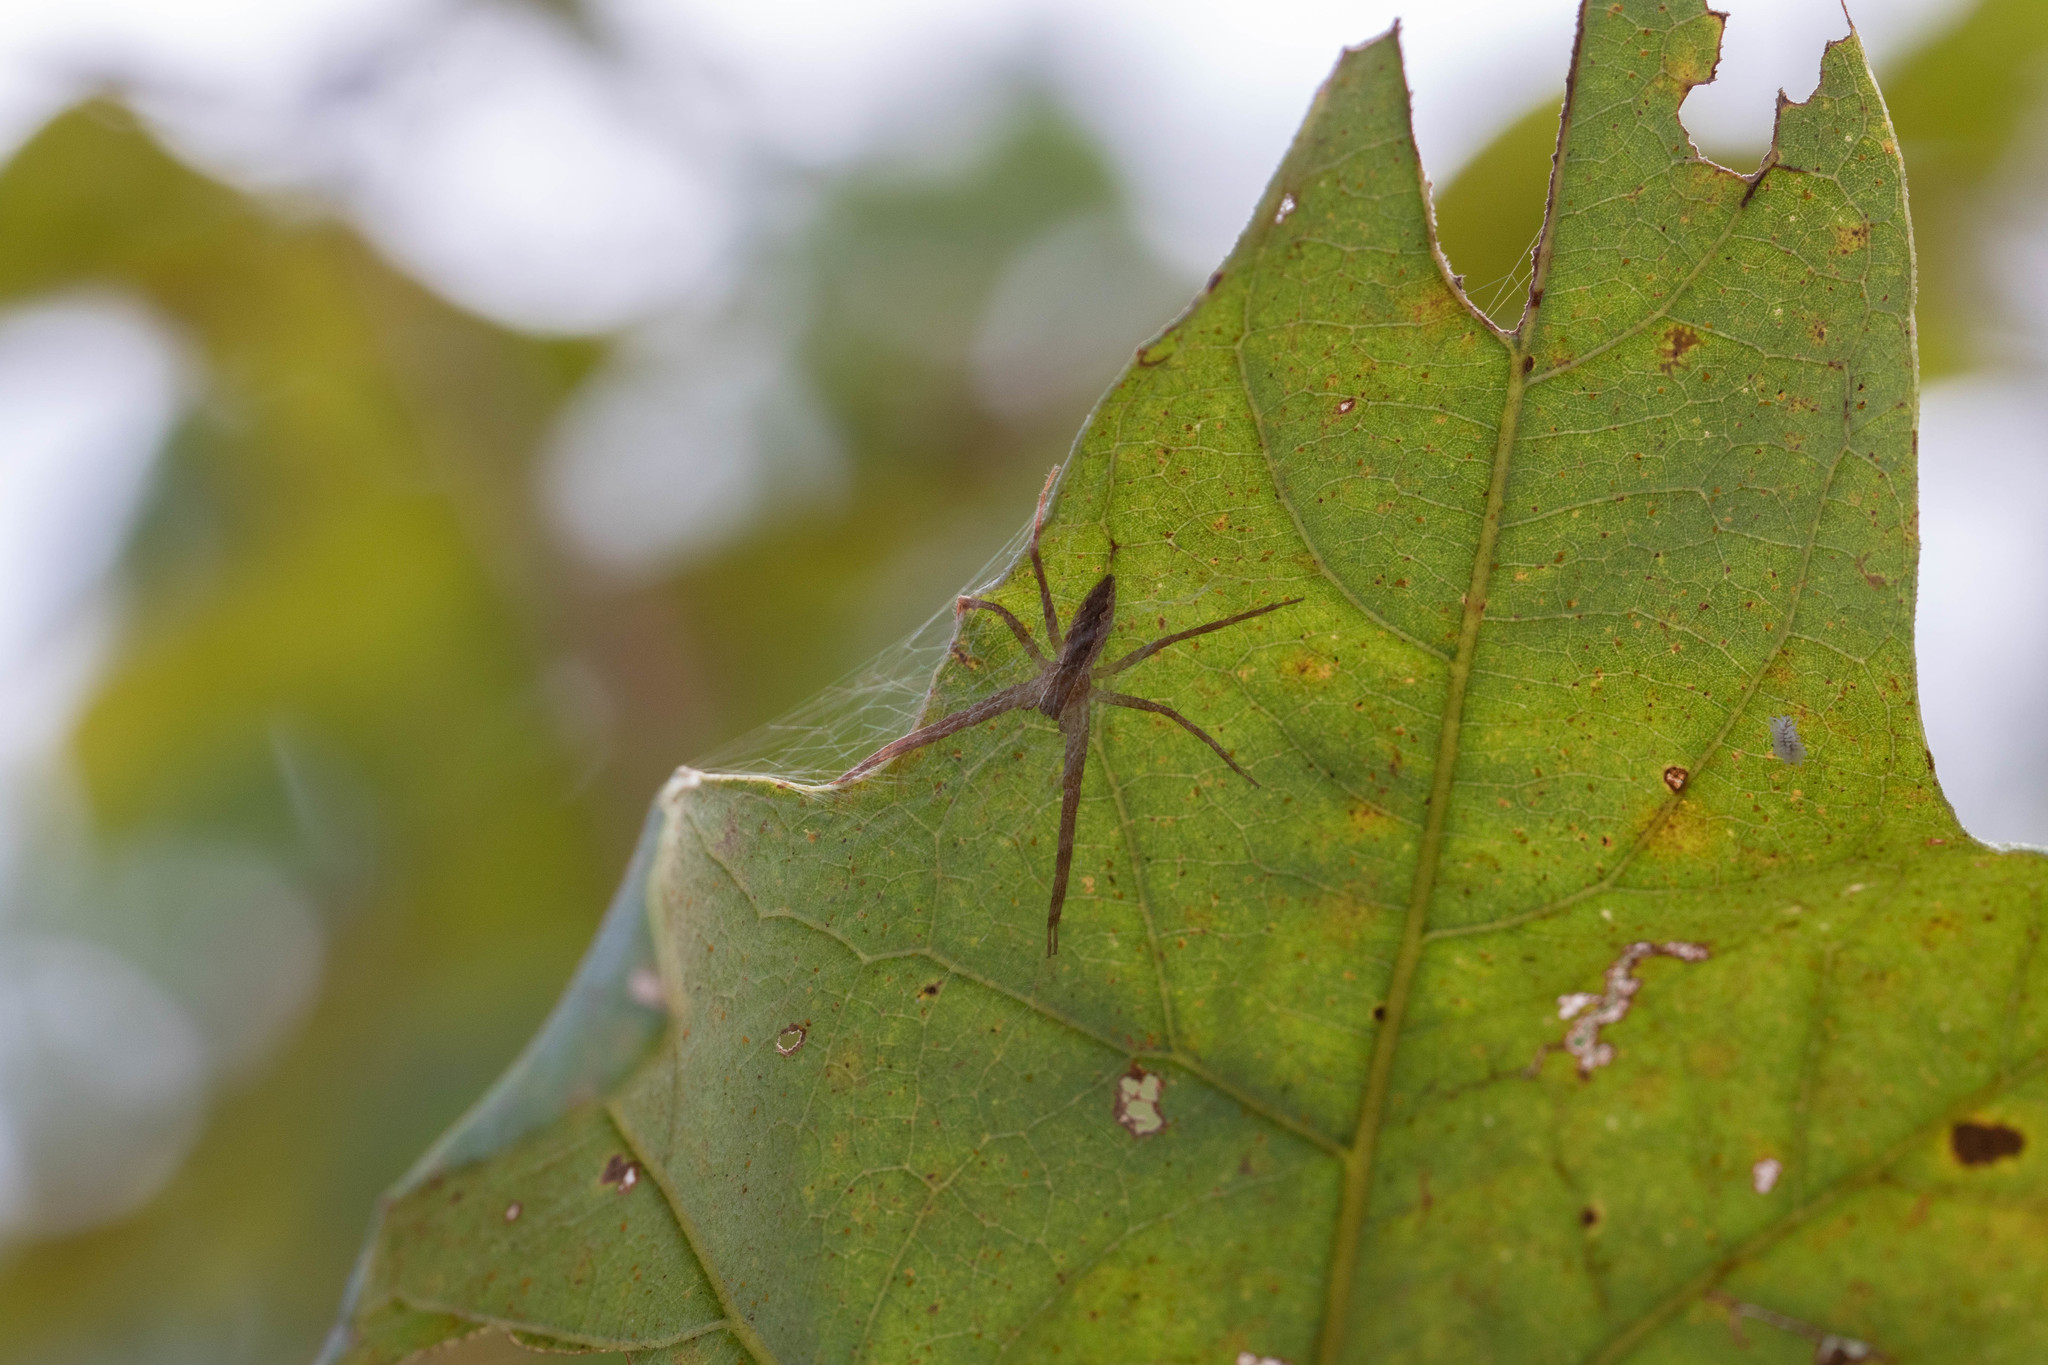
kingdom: Animalia
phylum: Arthropoda
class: Arachnida
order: Araneae
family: Pisauridae
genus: Pisaurina
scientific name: Pisaurina mira
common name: American nursery web spider
